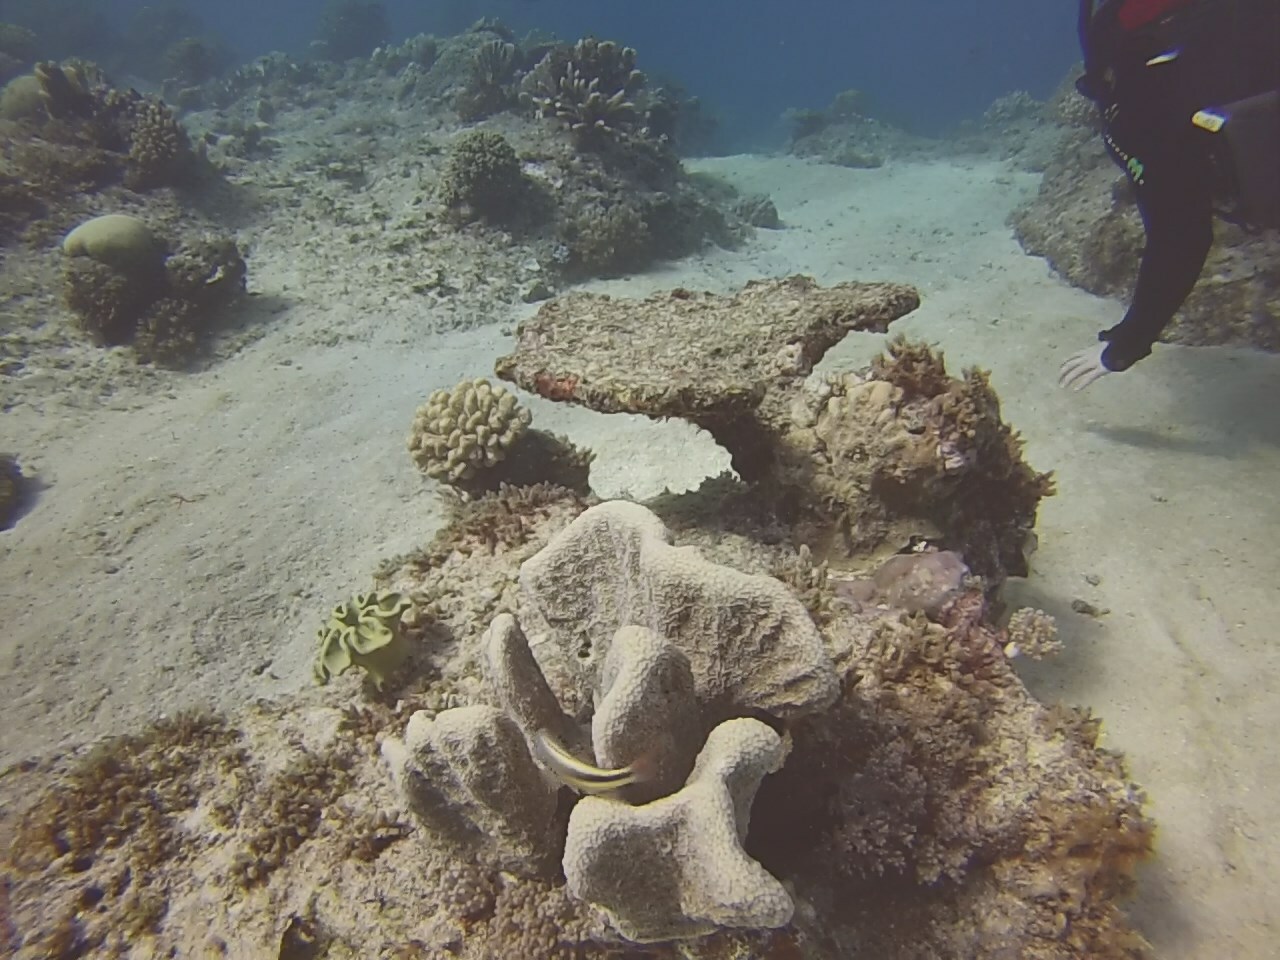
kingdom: Animalia
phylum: Chordata
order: Perciformes
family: Cirrhitidae
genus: Paracirrhites
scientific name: Paracirrhites forsteri
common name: Freckled hawkfish
